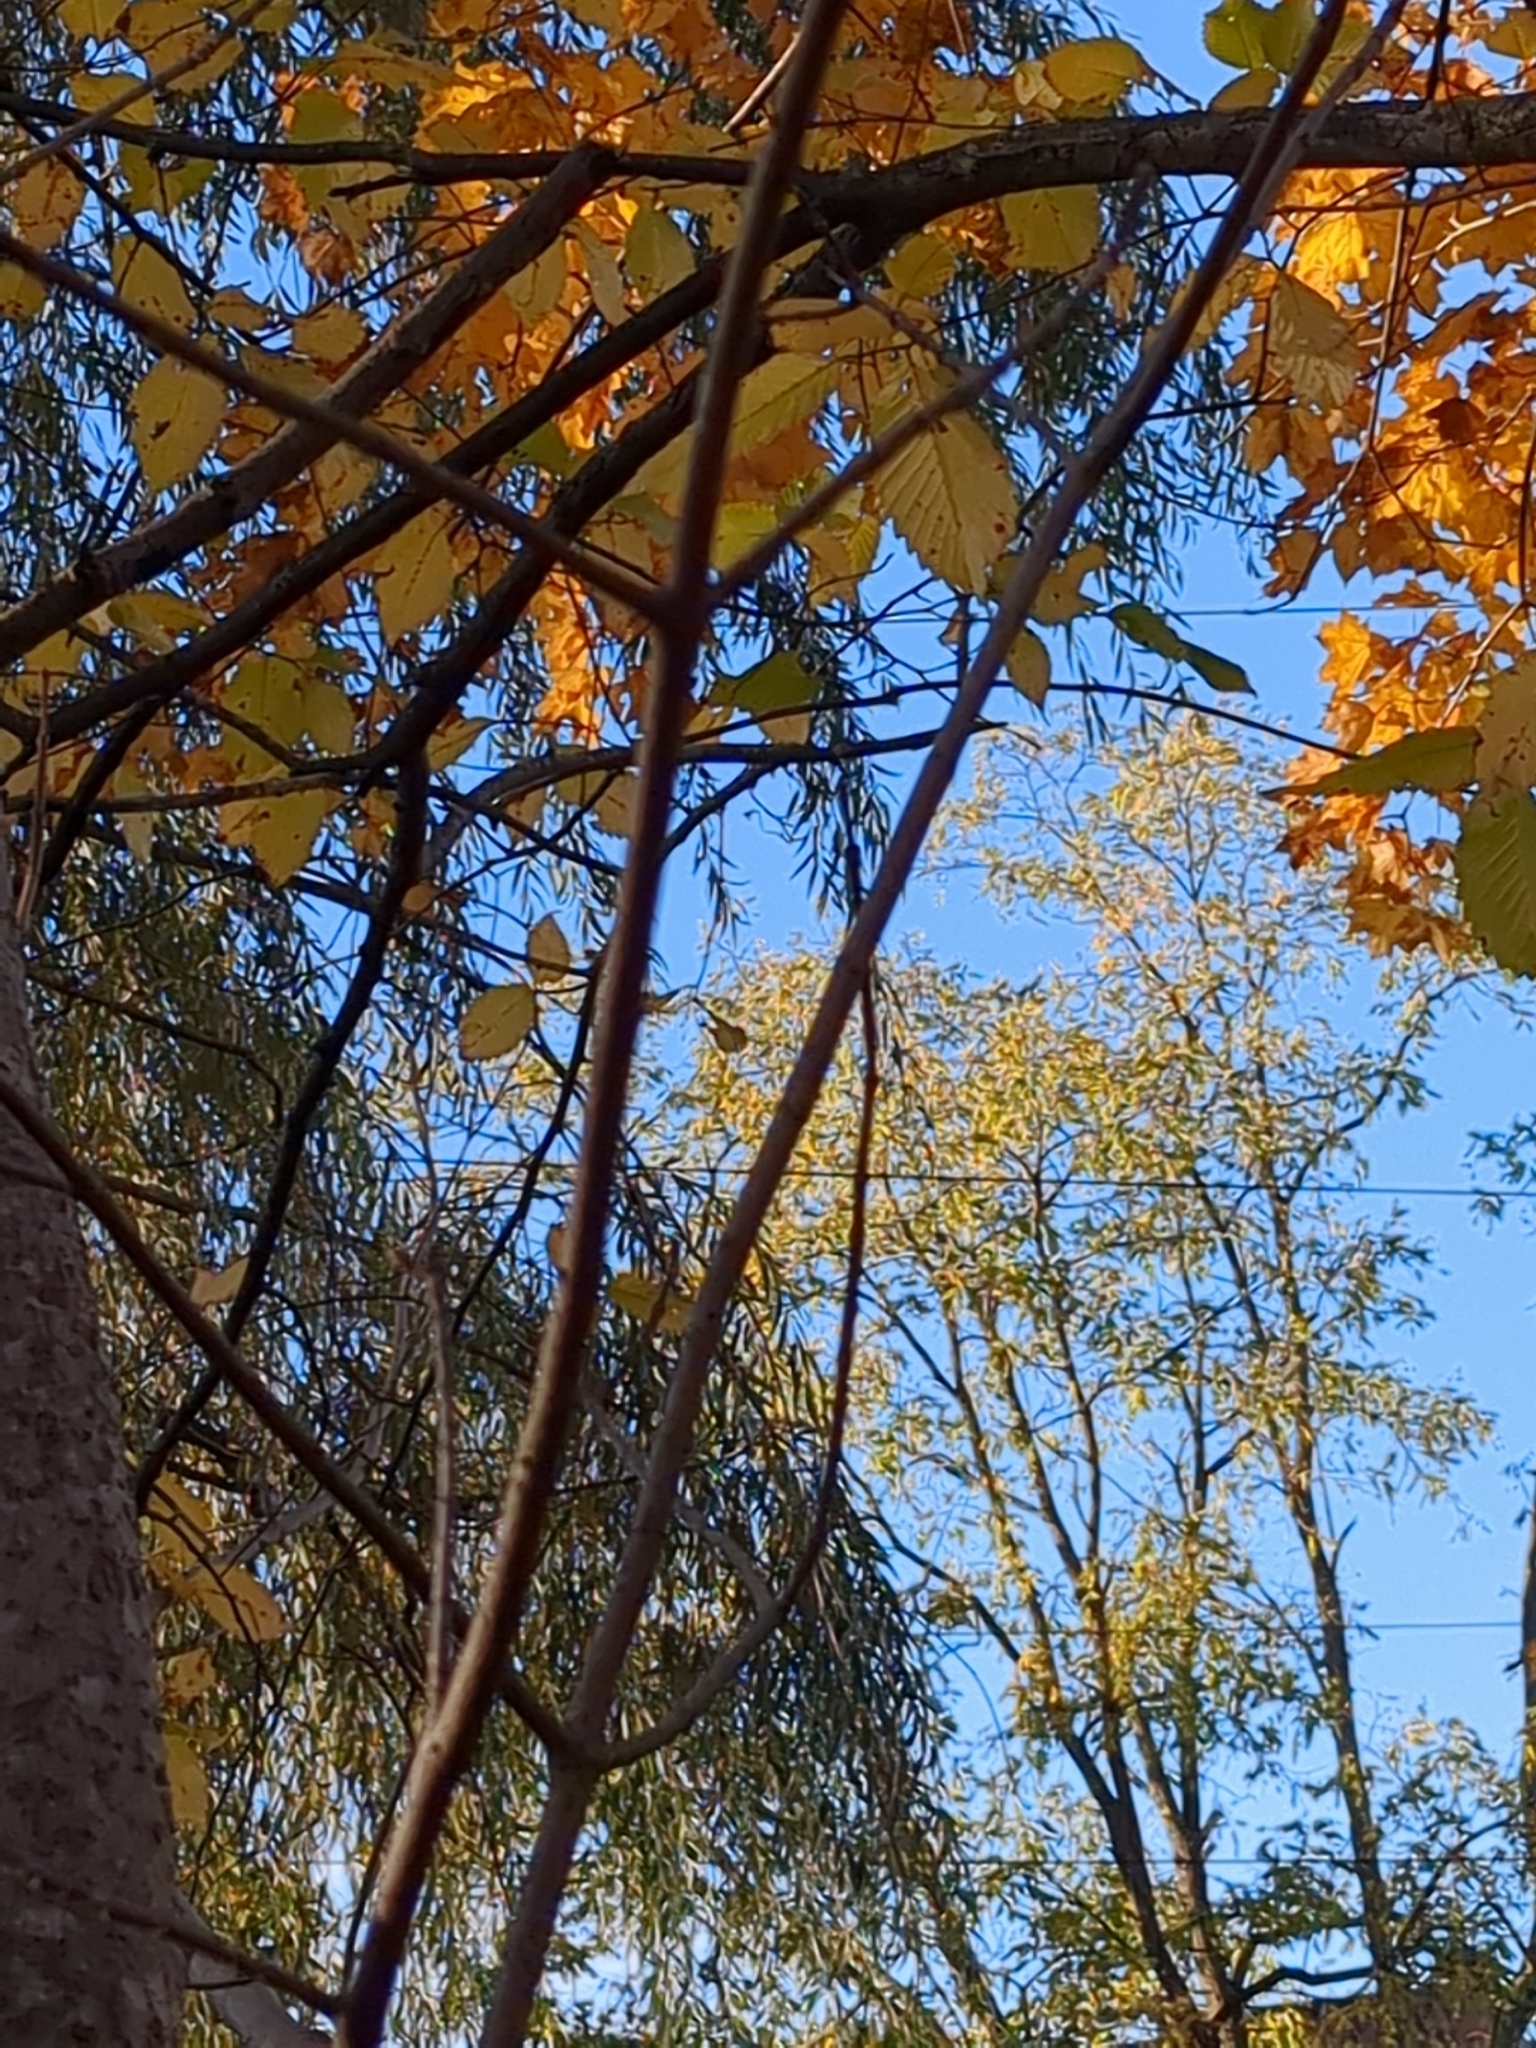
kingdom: Plantae
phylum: Tracheophyta
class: Magnoliopsida
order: Fagales
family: Fagaceae
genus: Fagus
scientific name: Fagus grandifolia
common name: American beech
